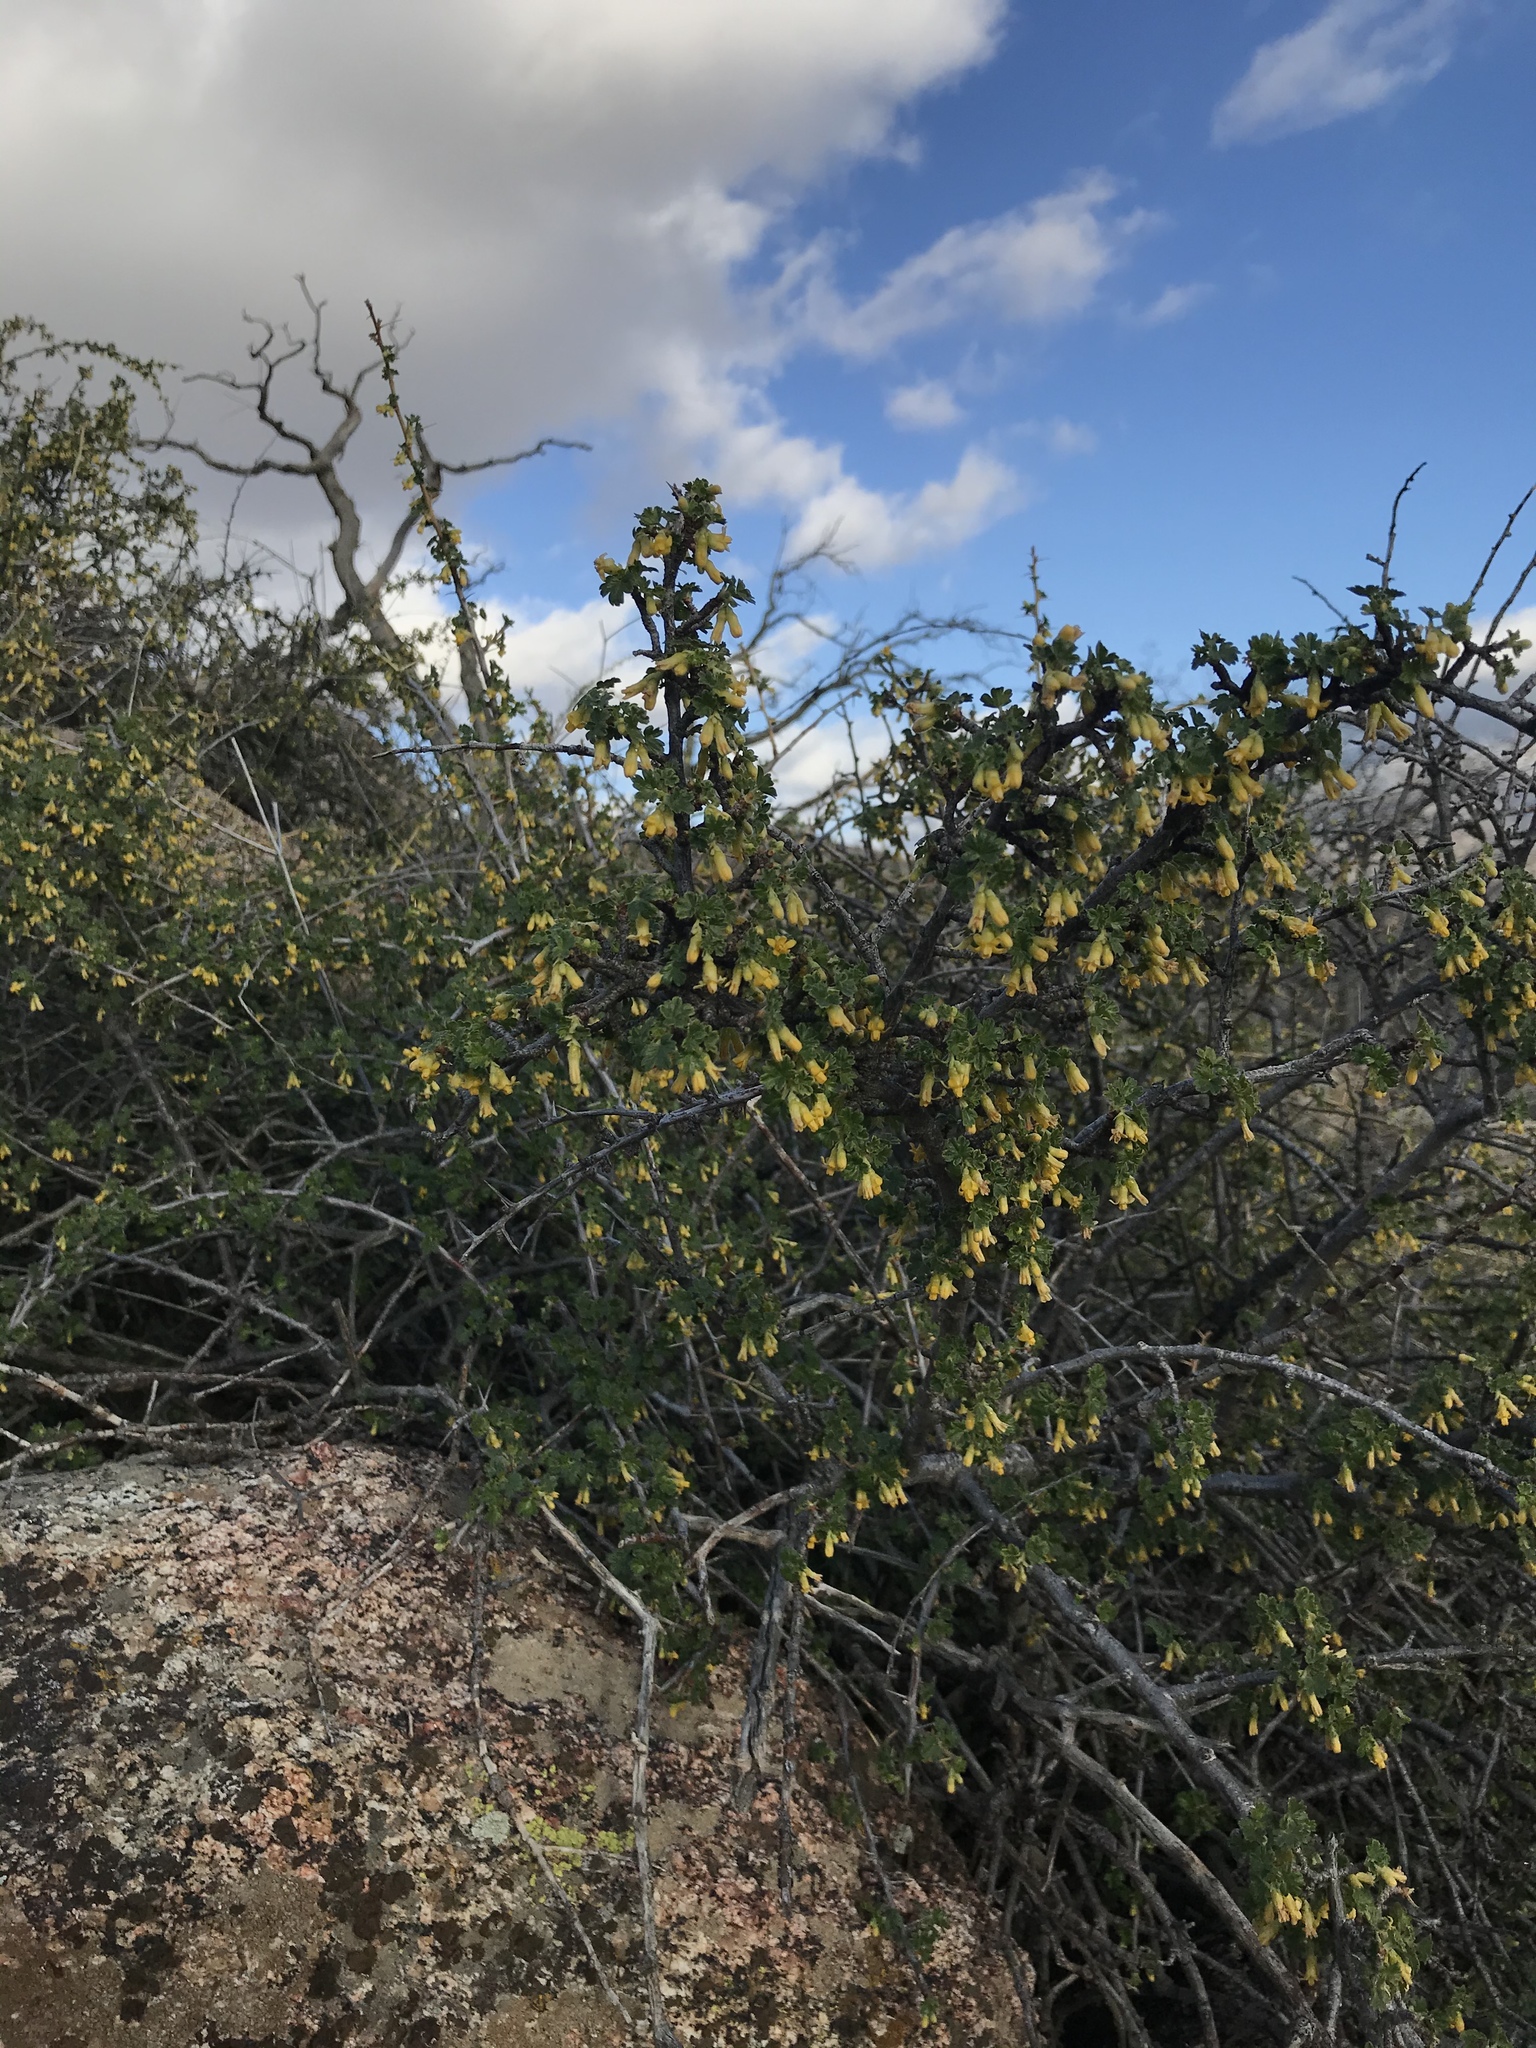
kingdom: Plantae
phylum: Tracheophyta
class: Magnoliopsida
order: Saxifragales
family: Grossulariaceae
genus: Ribes
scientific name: Ribes quercetorum
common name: Oak gooseberry
